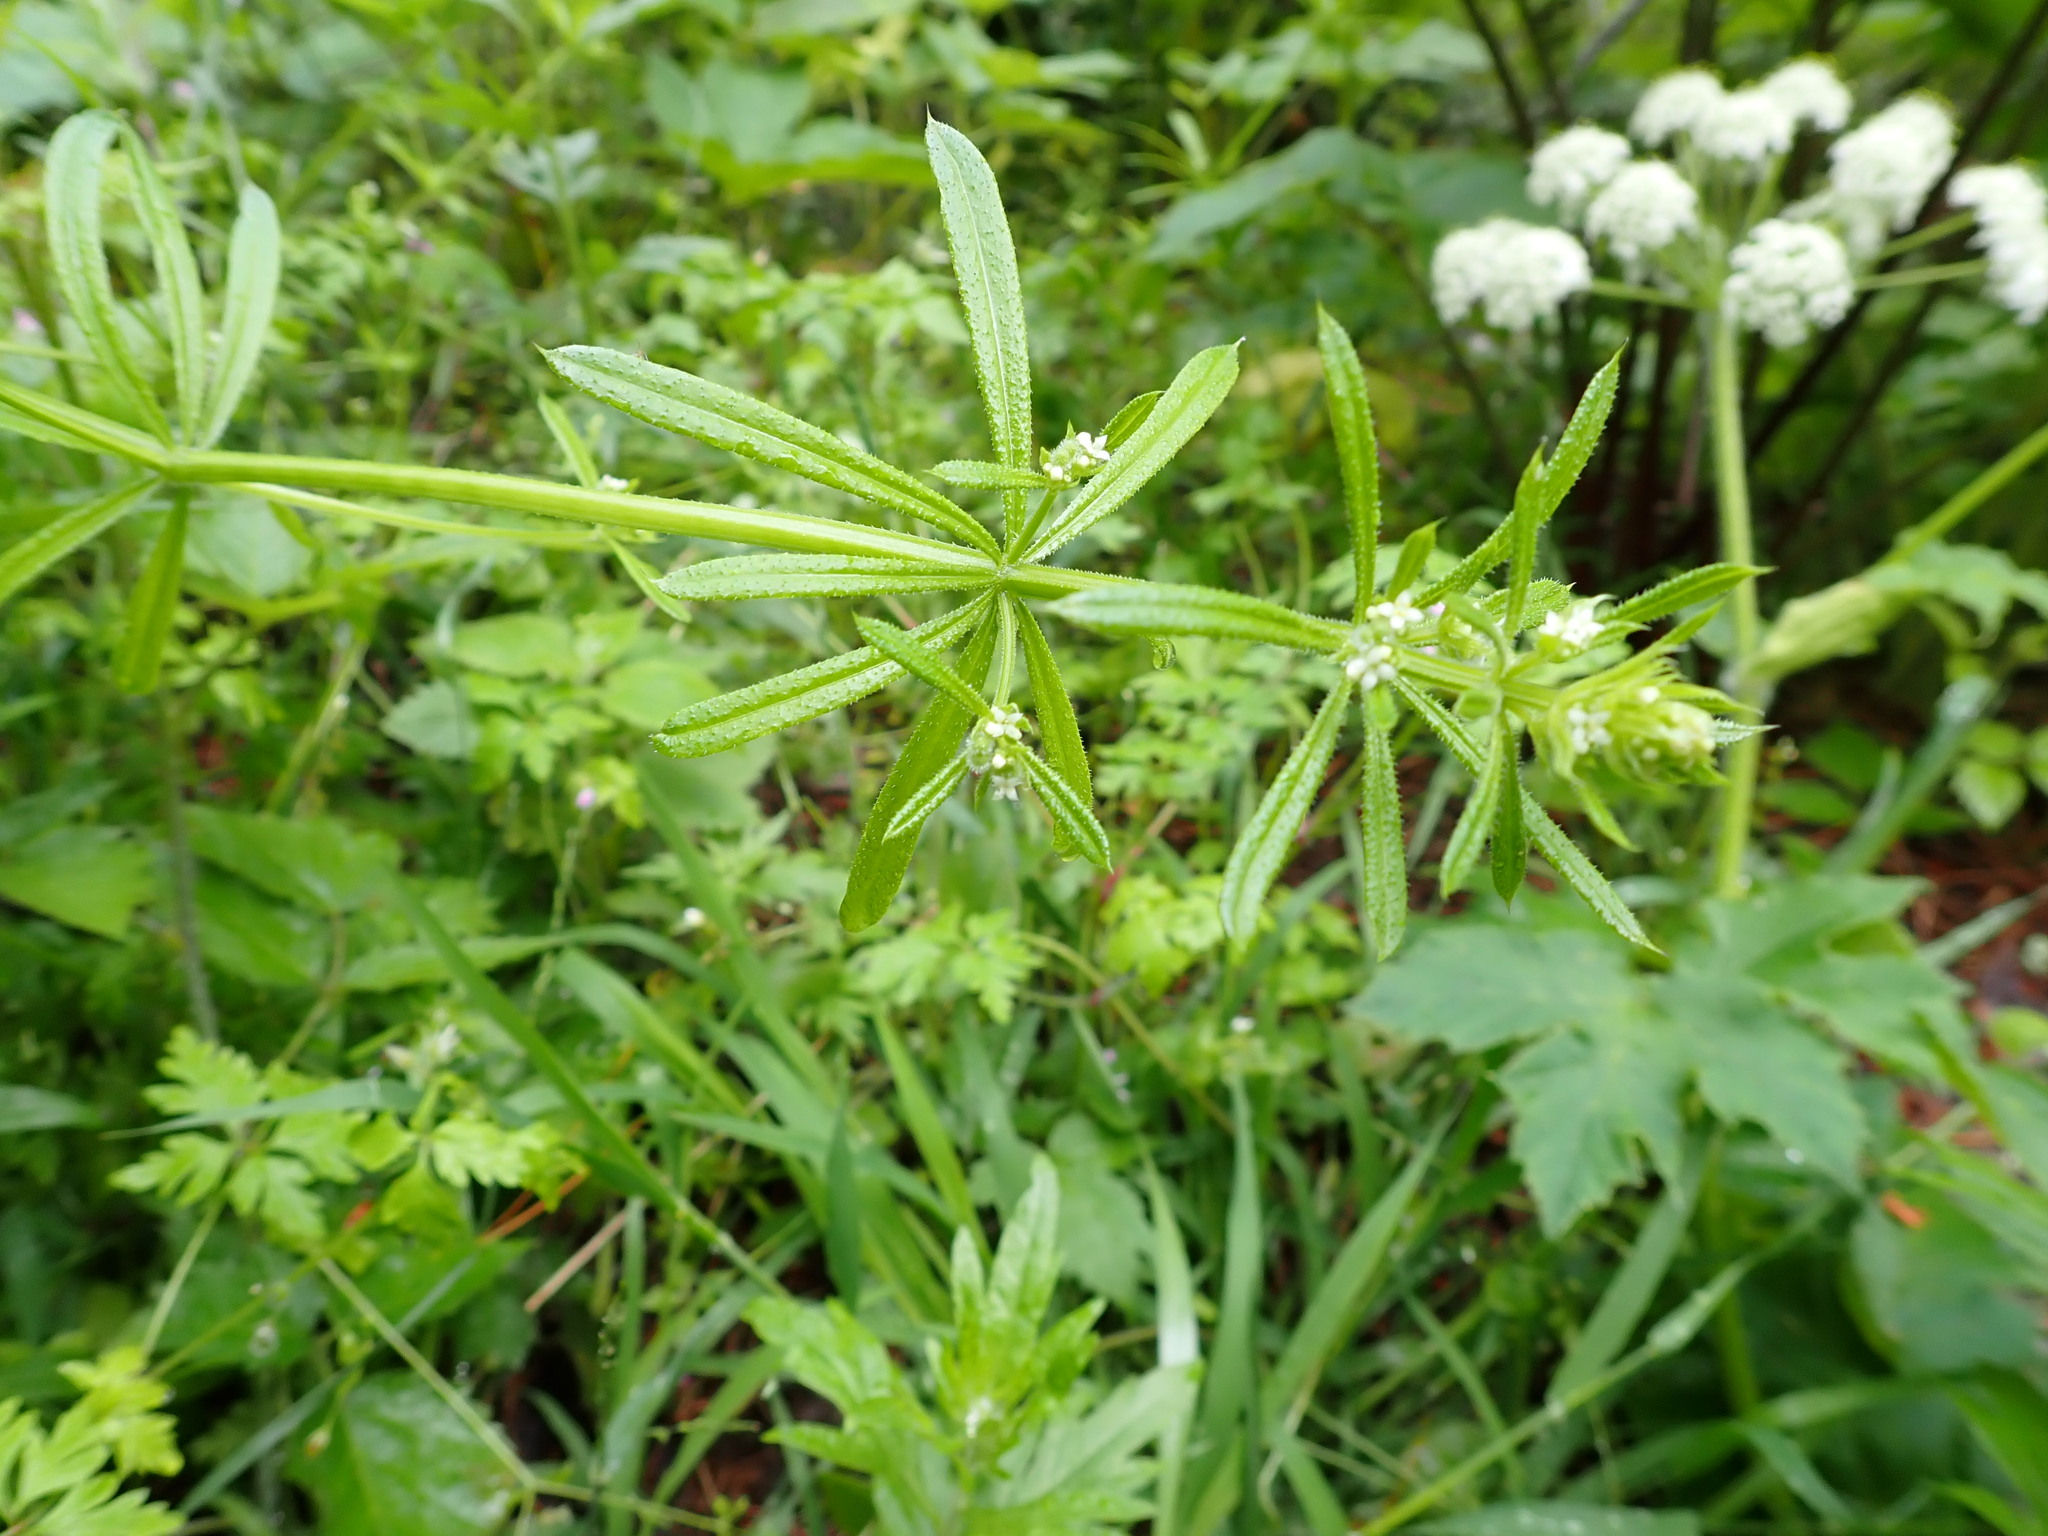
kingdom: Plantae
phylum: Tracheophyta
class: Magnoliopsida
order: Gentianales
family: Rubiaceae
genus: Galium
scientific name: Galium aparine
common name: Cleavers
